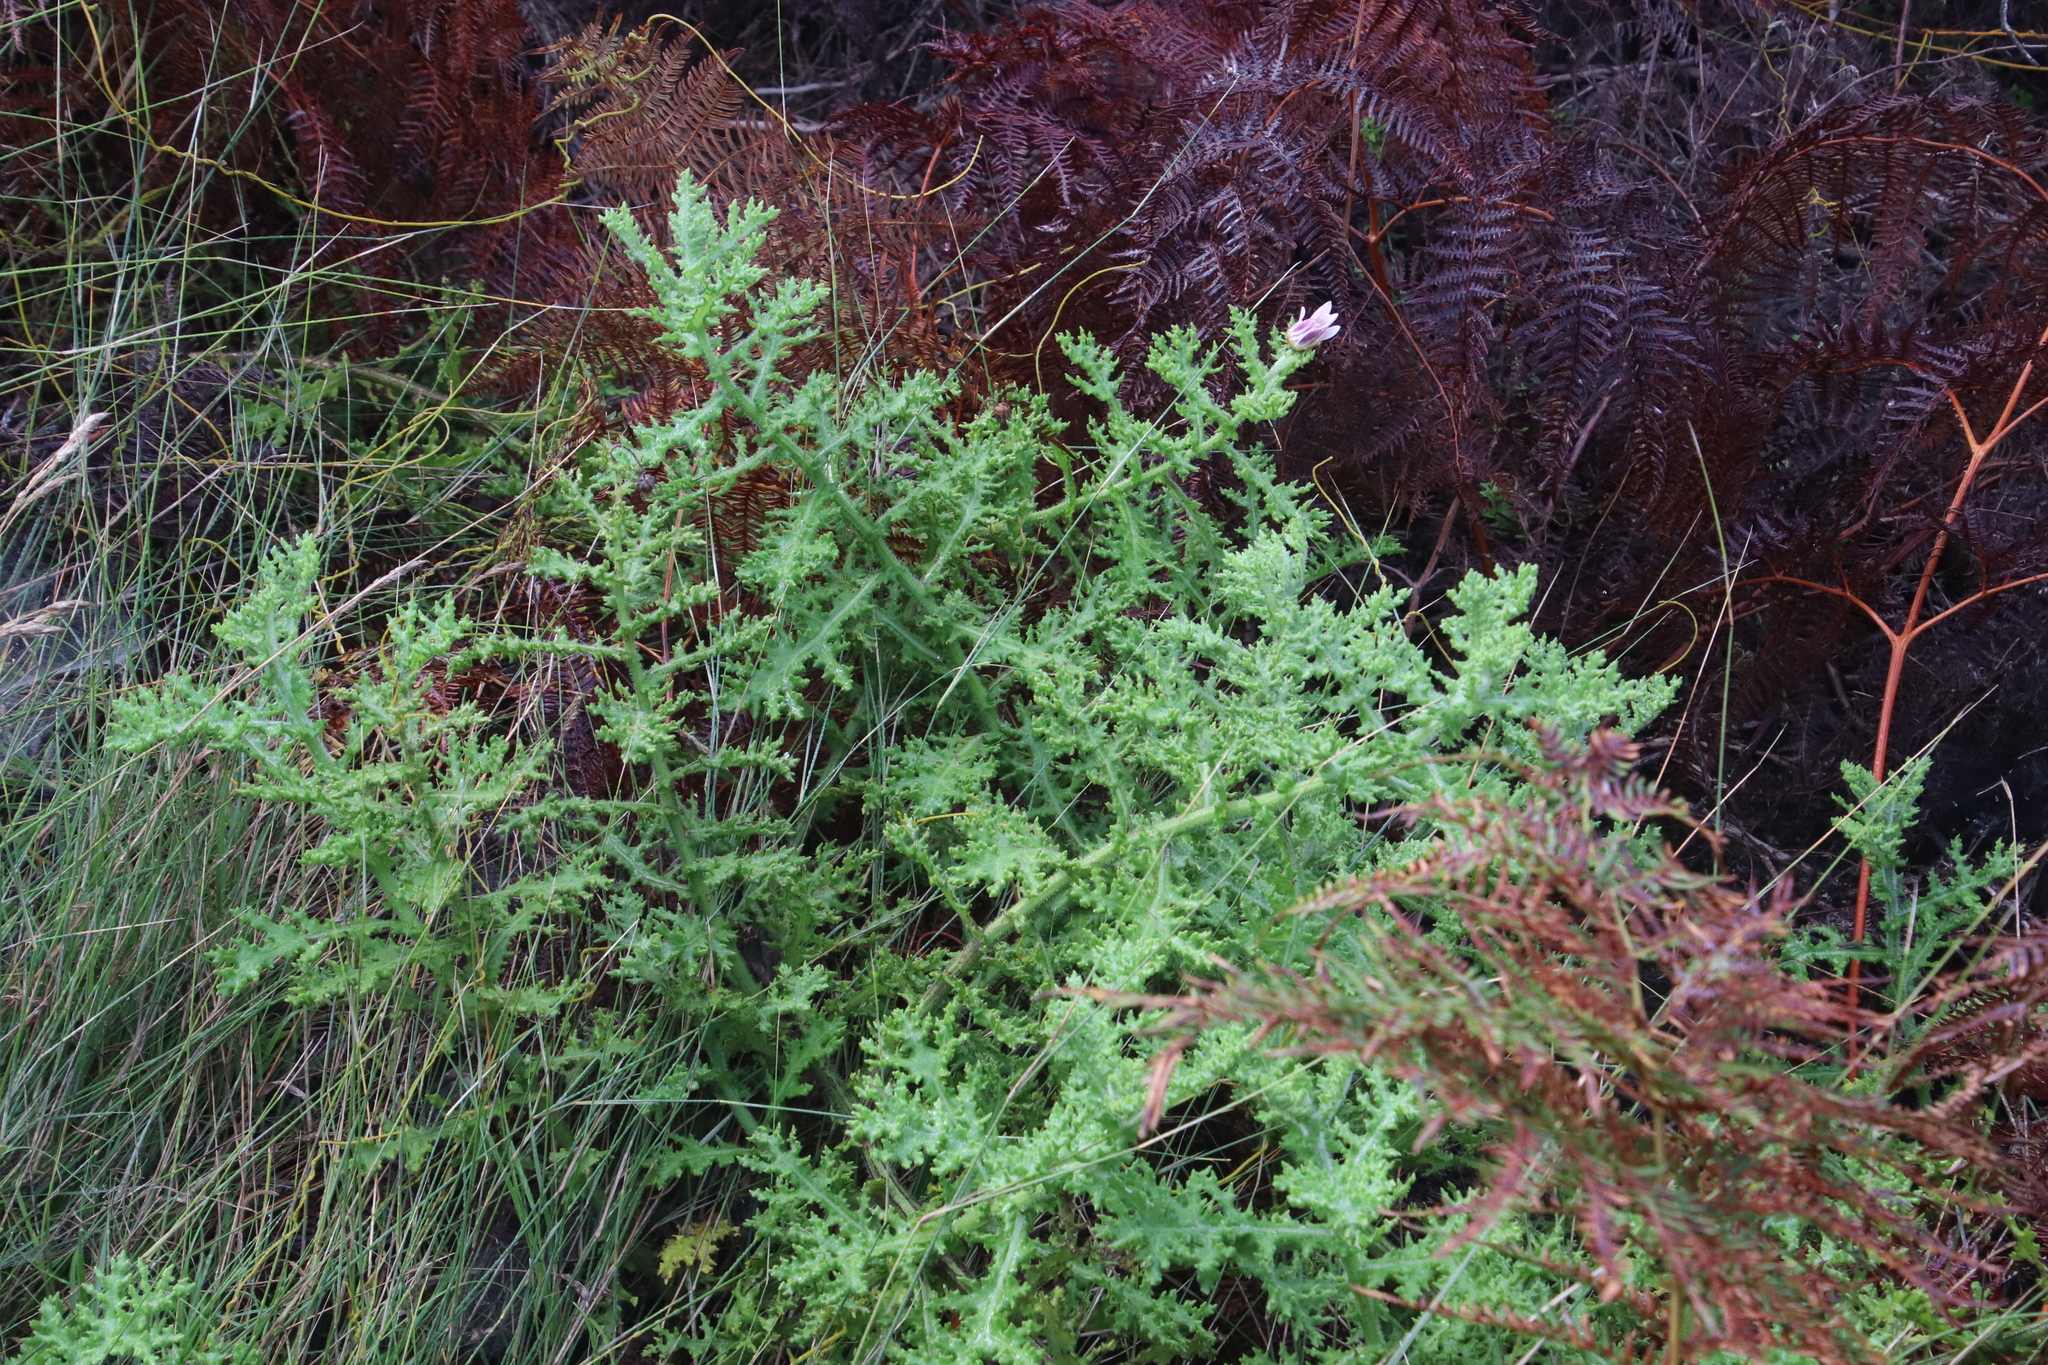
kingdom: Plantae
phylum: Tracheophyta
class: Magnoliopsida
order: Asterales
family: Asteraceae
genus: Arctotis
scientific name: Arctotis aspera
